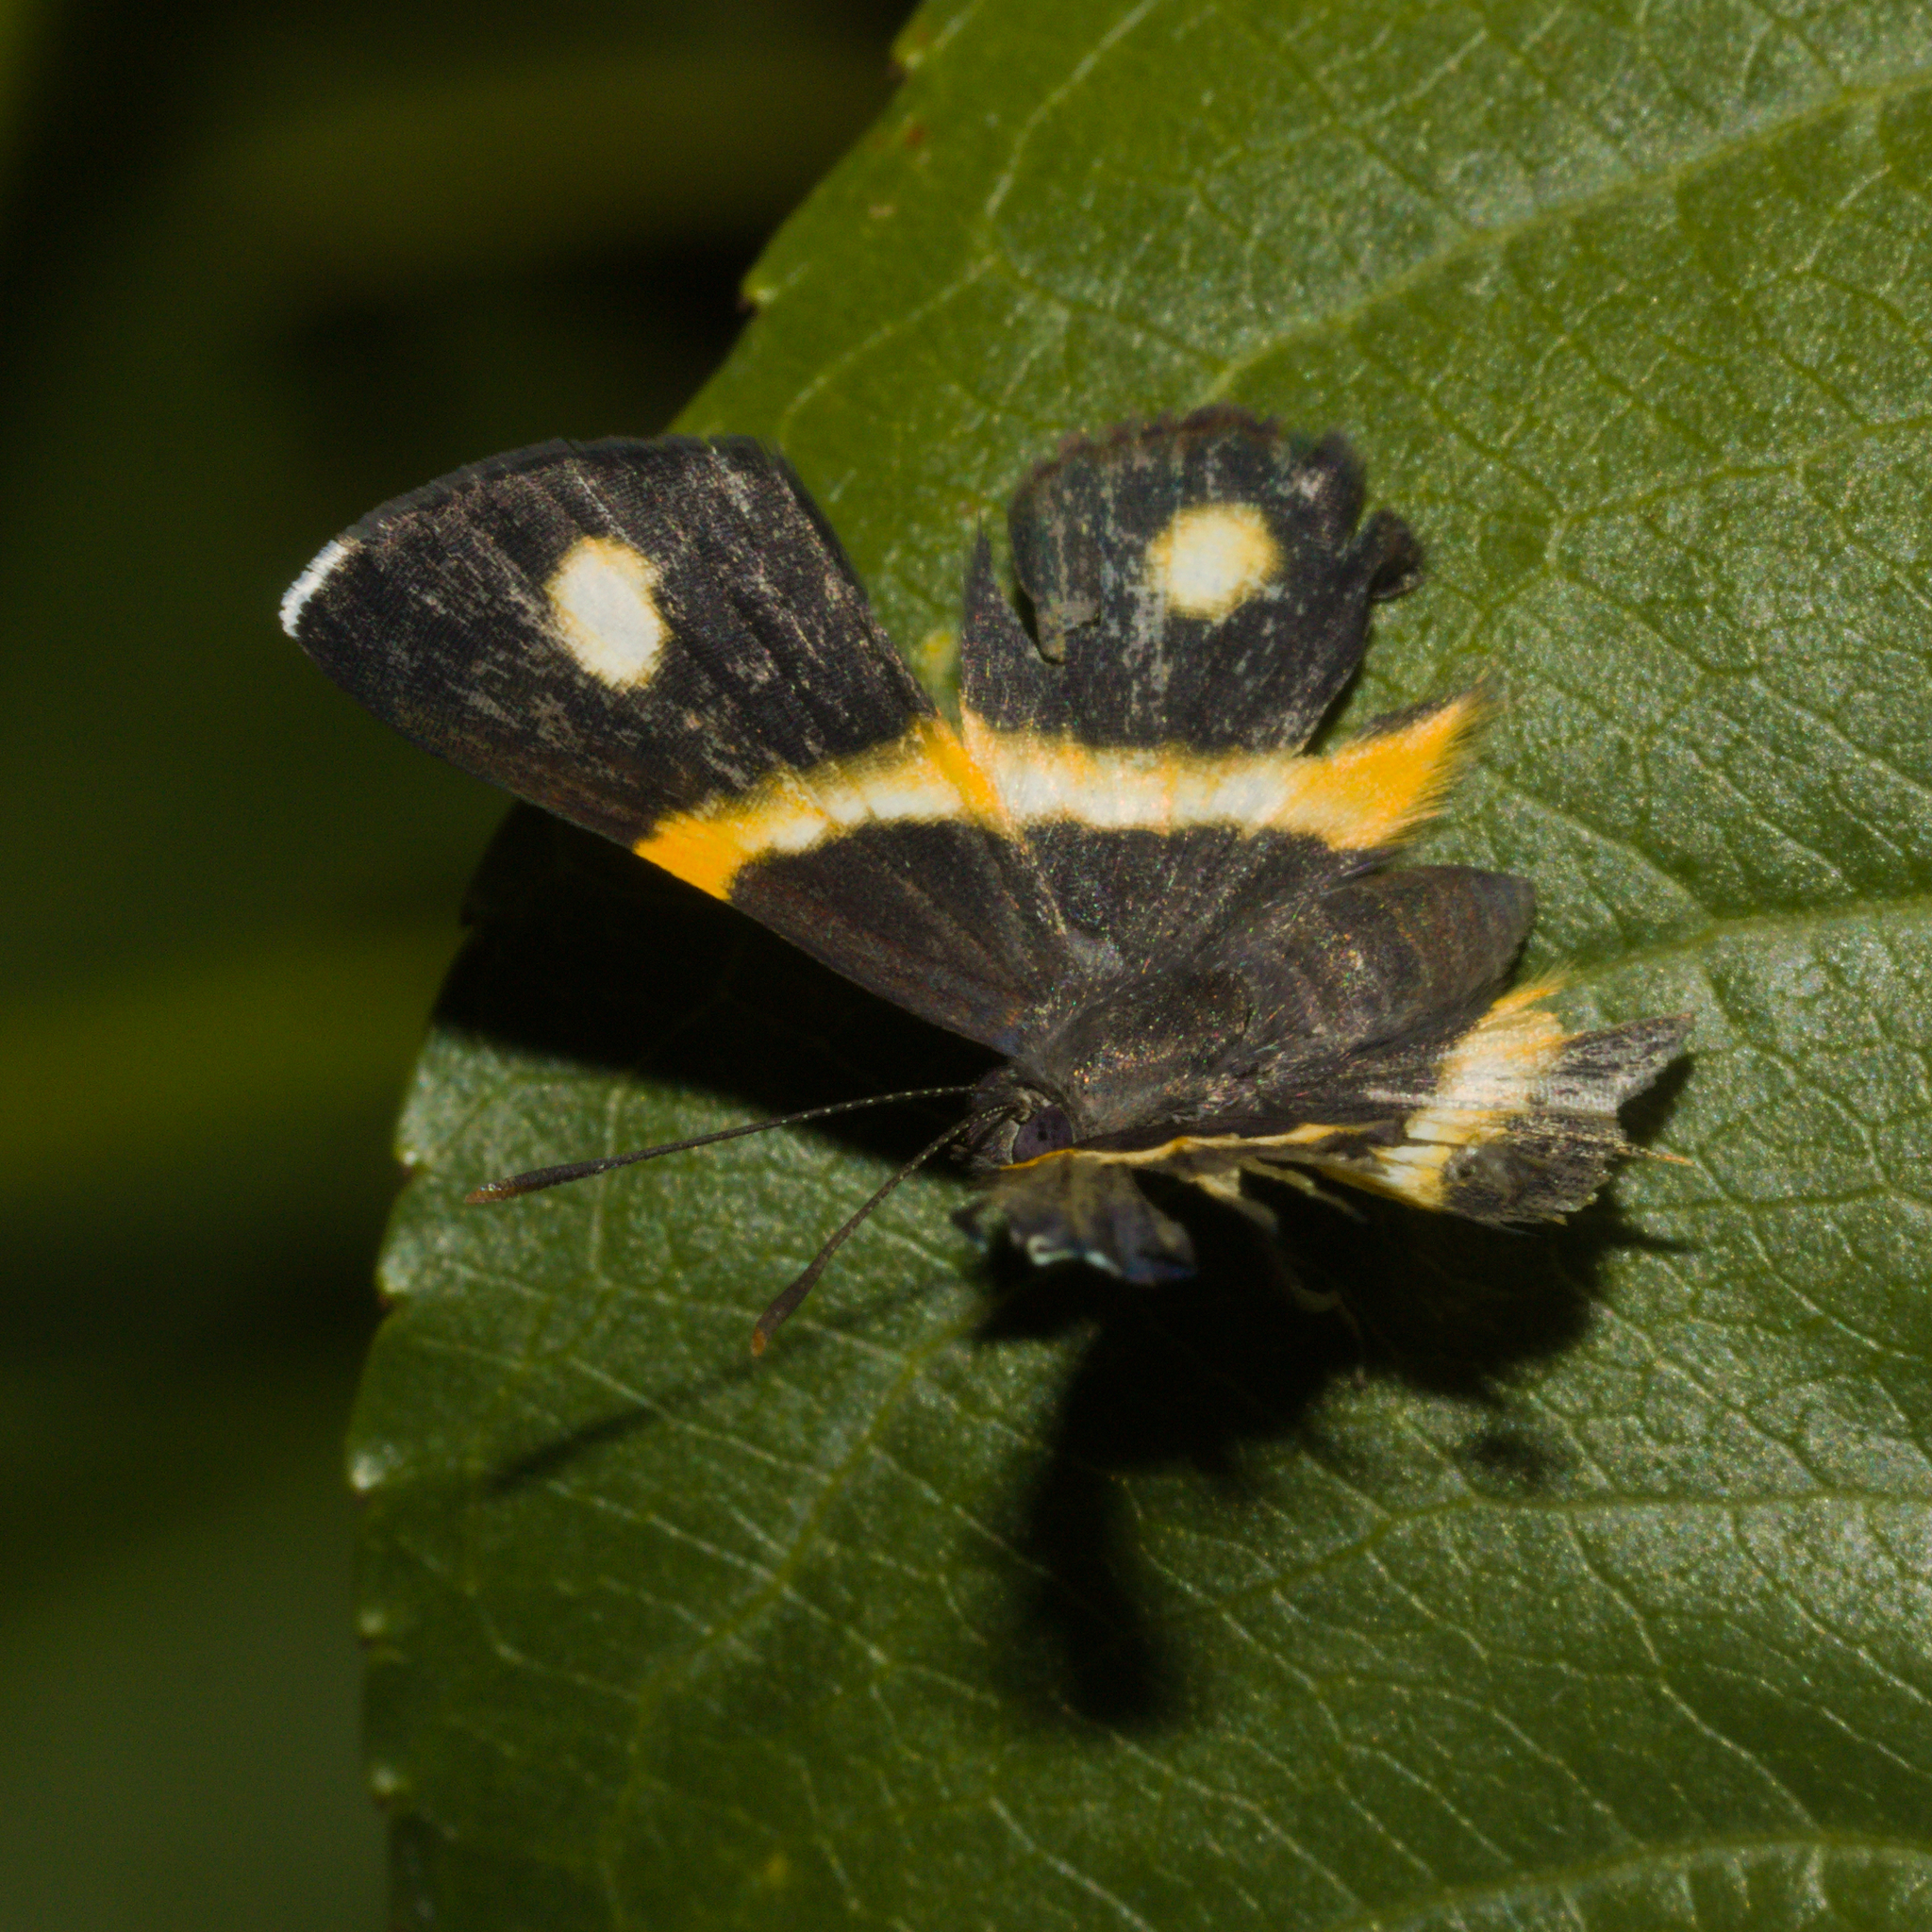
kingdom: Animalia
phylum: Arthropoda
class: Insecta
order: Lepidoptera
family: Riodinidae
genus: Parcella
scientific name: Parcella amarynthina
